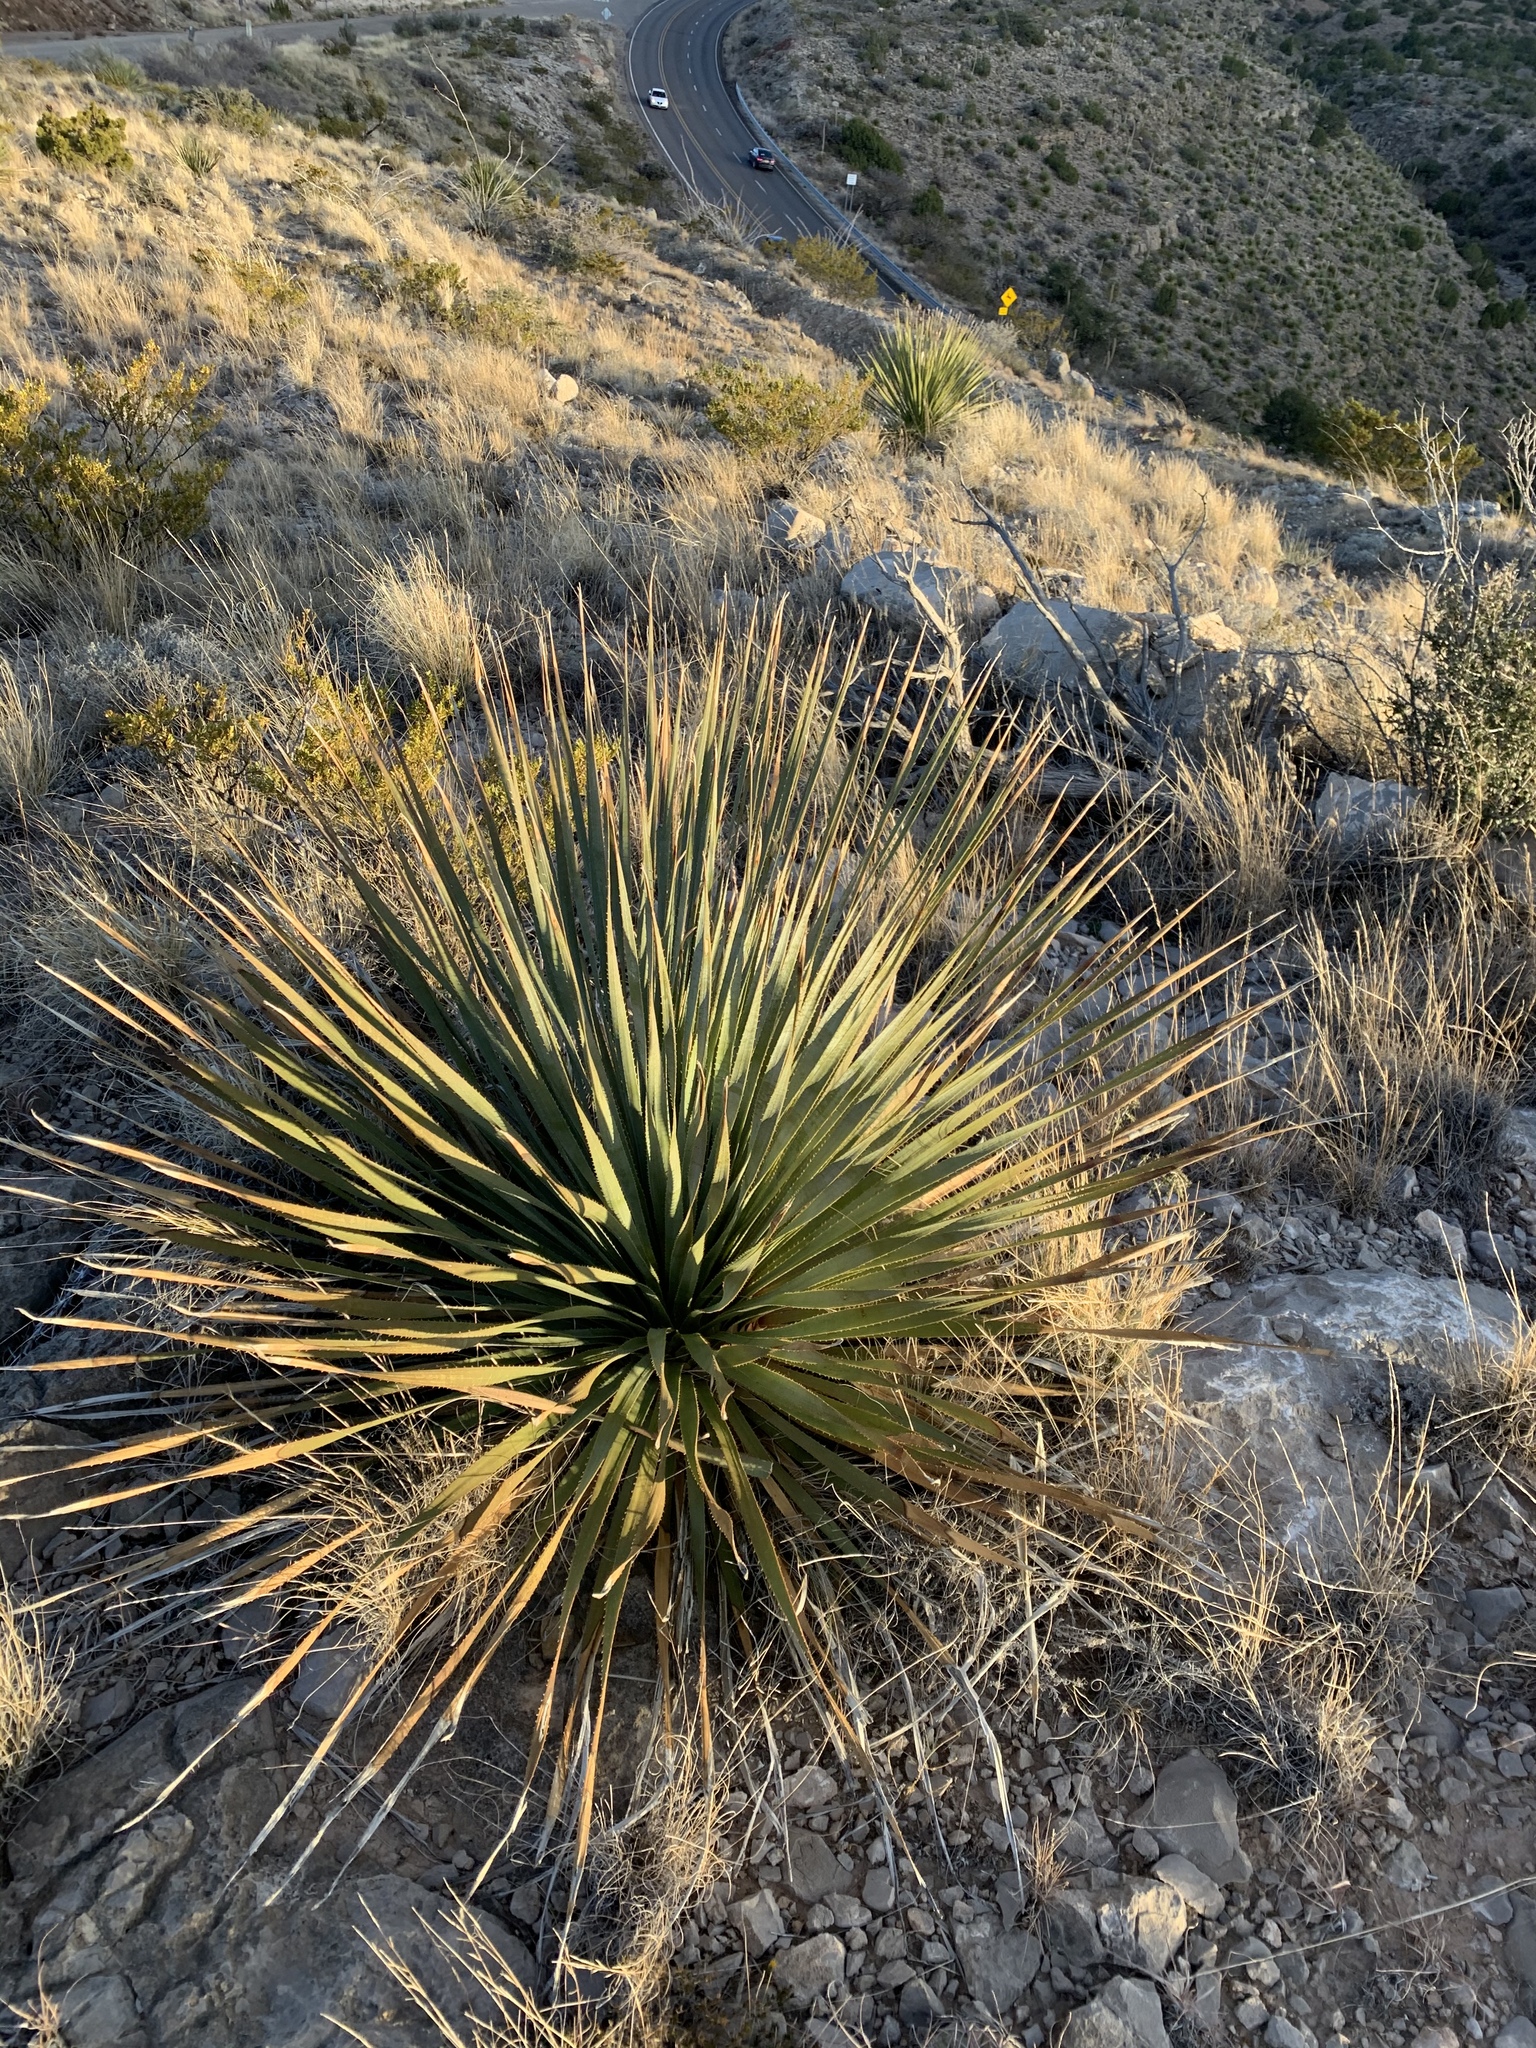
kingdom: Plantae
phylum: Tracheophyta
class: Liliopsida
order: Asparagales
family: Asparagaceae
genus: Dasylirion
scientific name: Dasylirion wheeleri
